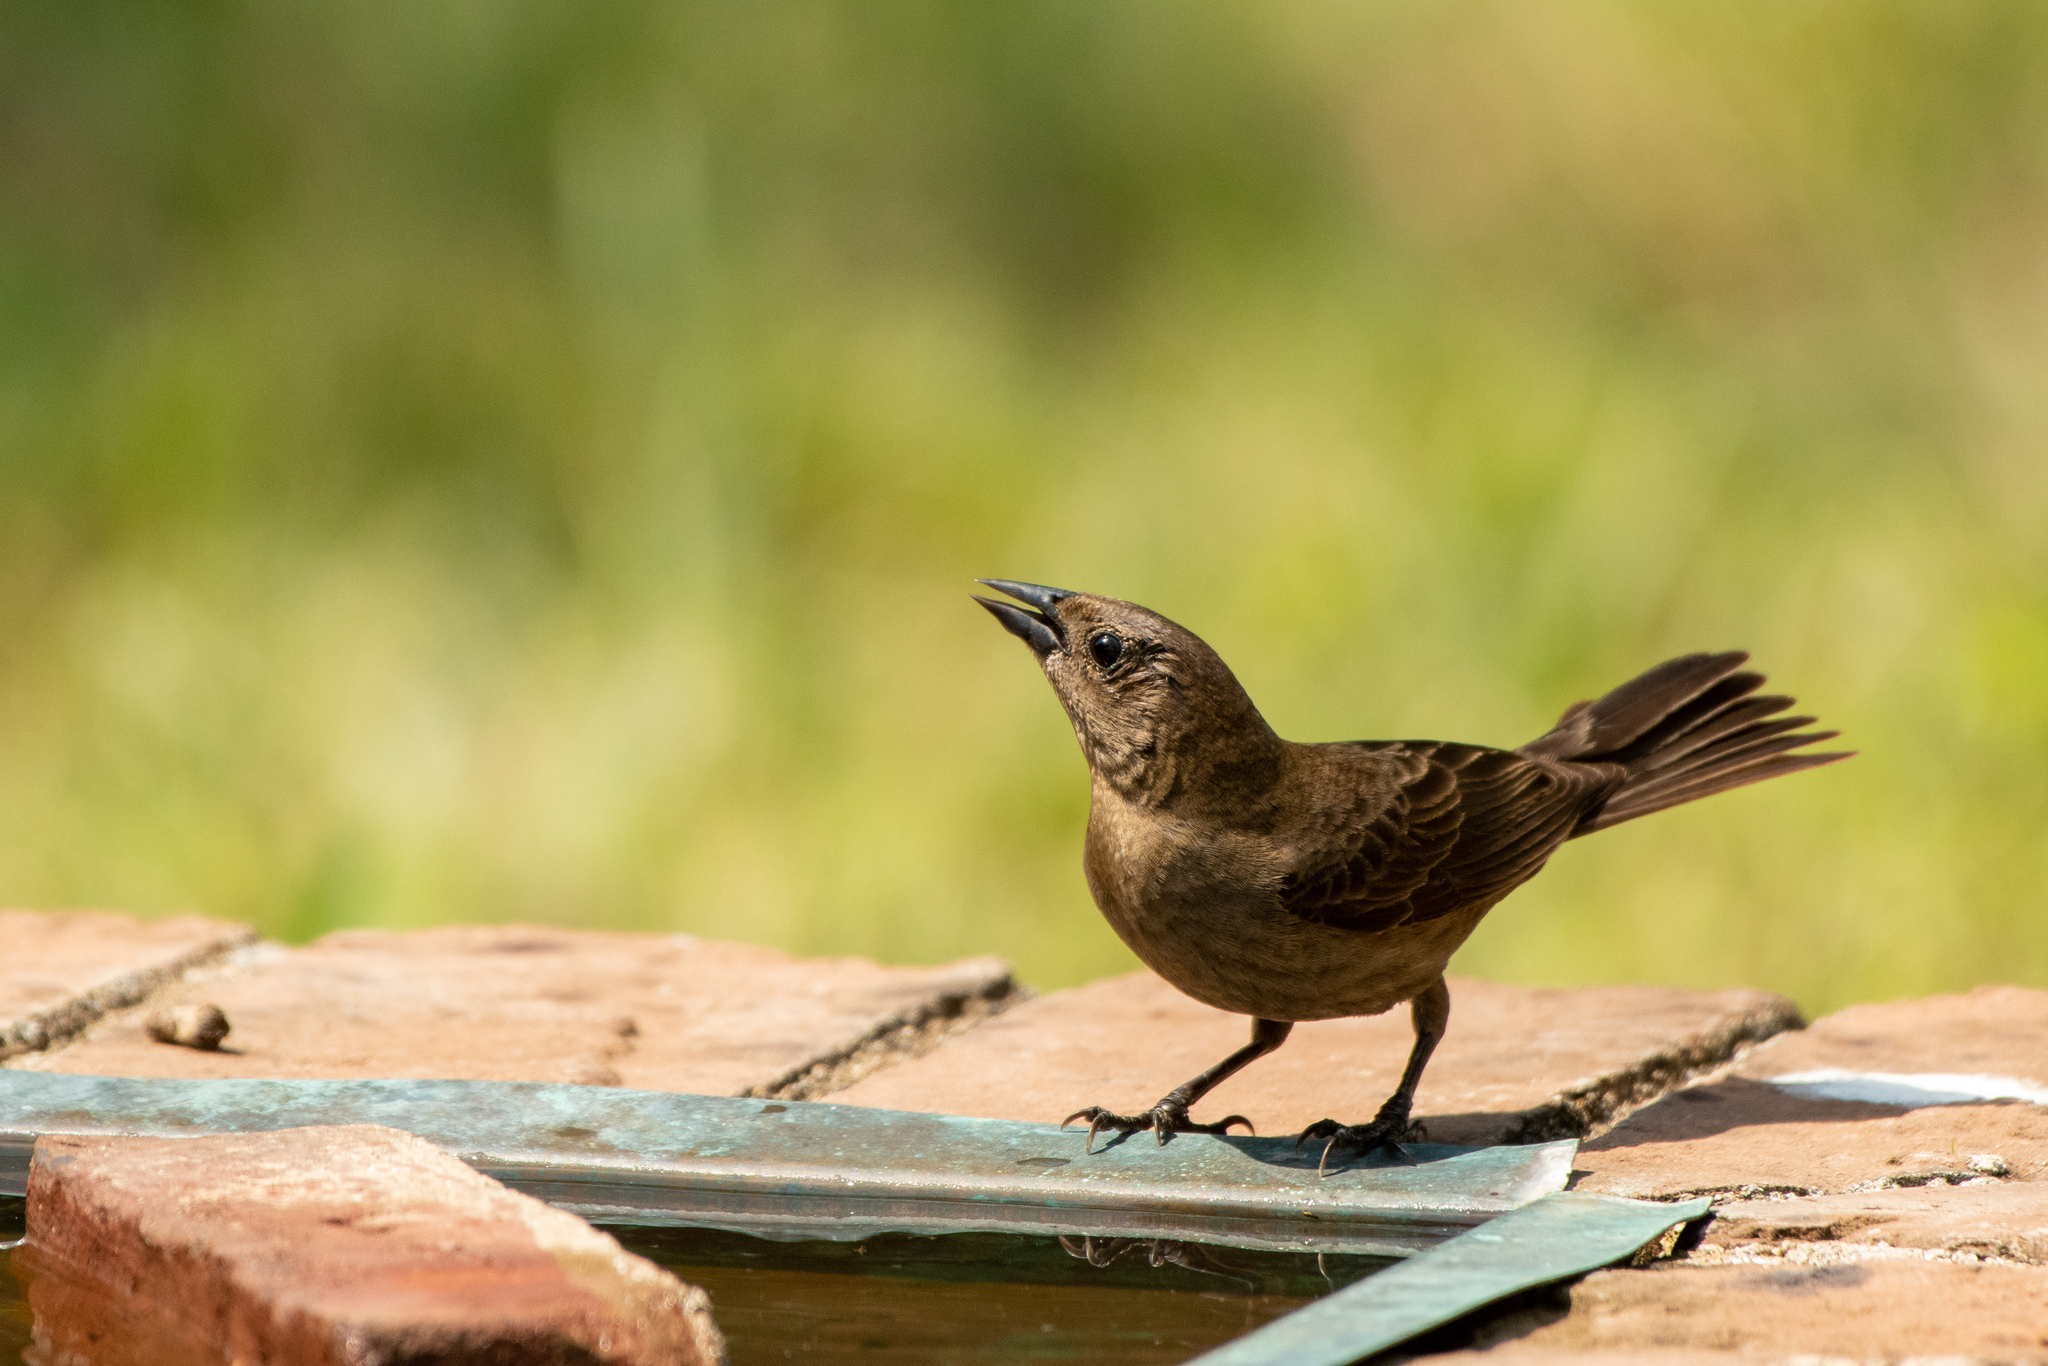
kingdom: Animalia
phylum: Chordata
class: Aves
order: Passeriformes
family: Icteridae
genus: Molothrus
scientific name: Molothrus bonariensis
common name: Shiny cowbird
